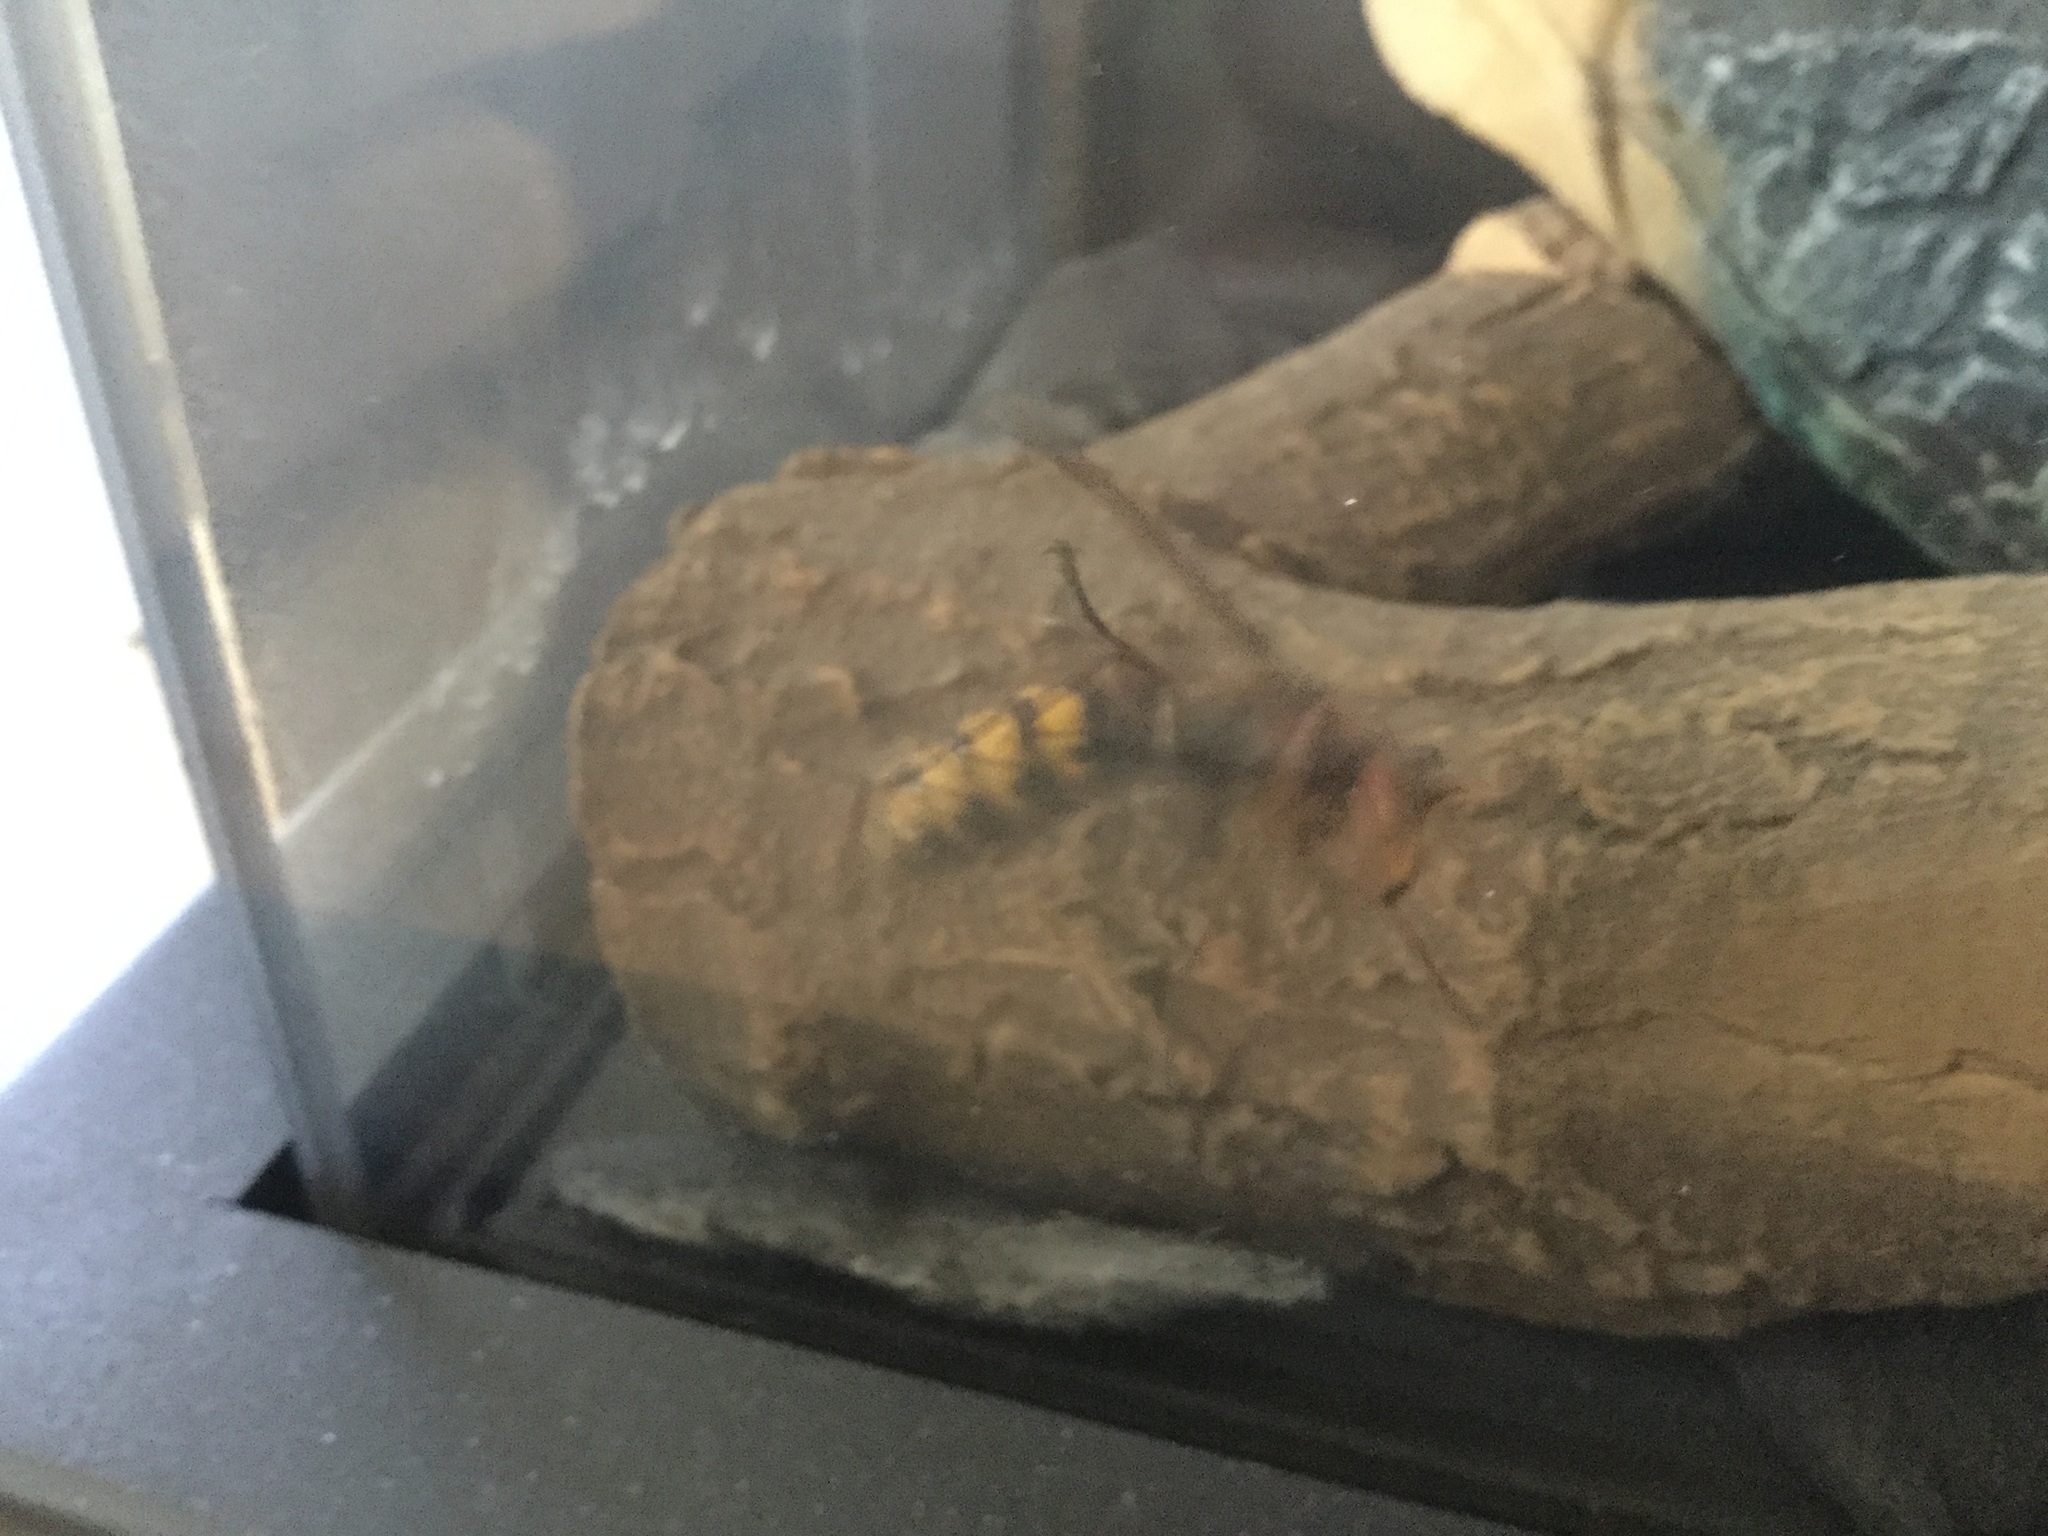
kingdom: Animalia
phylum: Arthropoda
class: Insecta
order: Hymenoptera
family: Vespidae
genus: Vespa
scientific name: Vespa crabro
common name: Hornet
